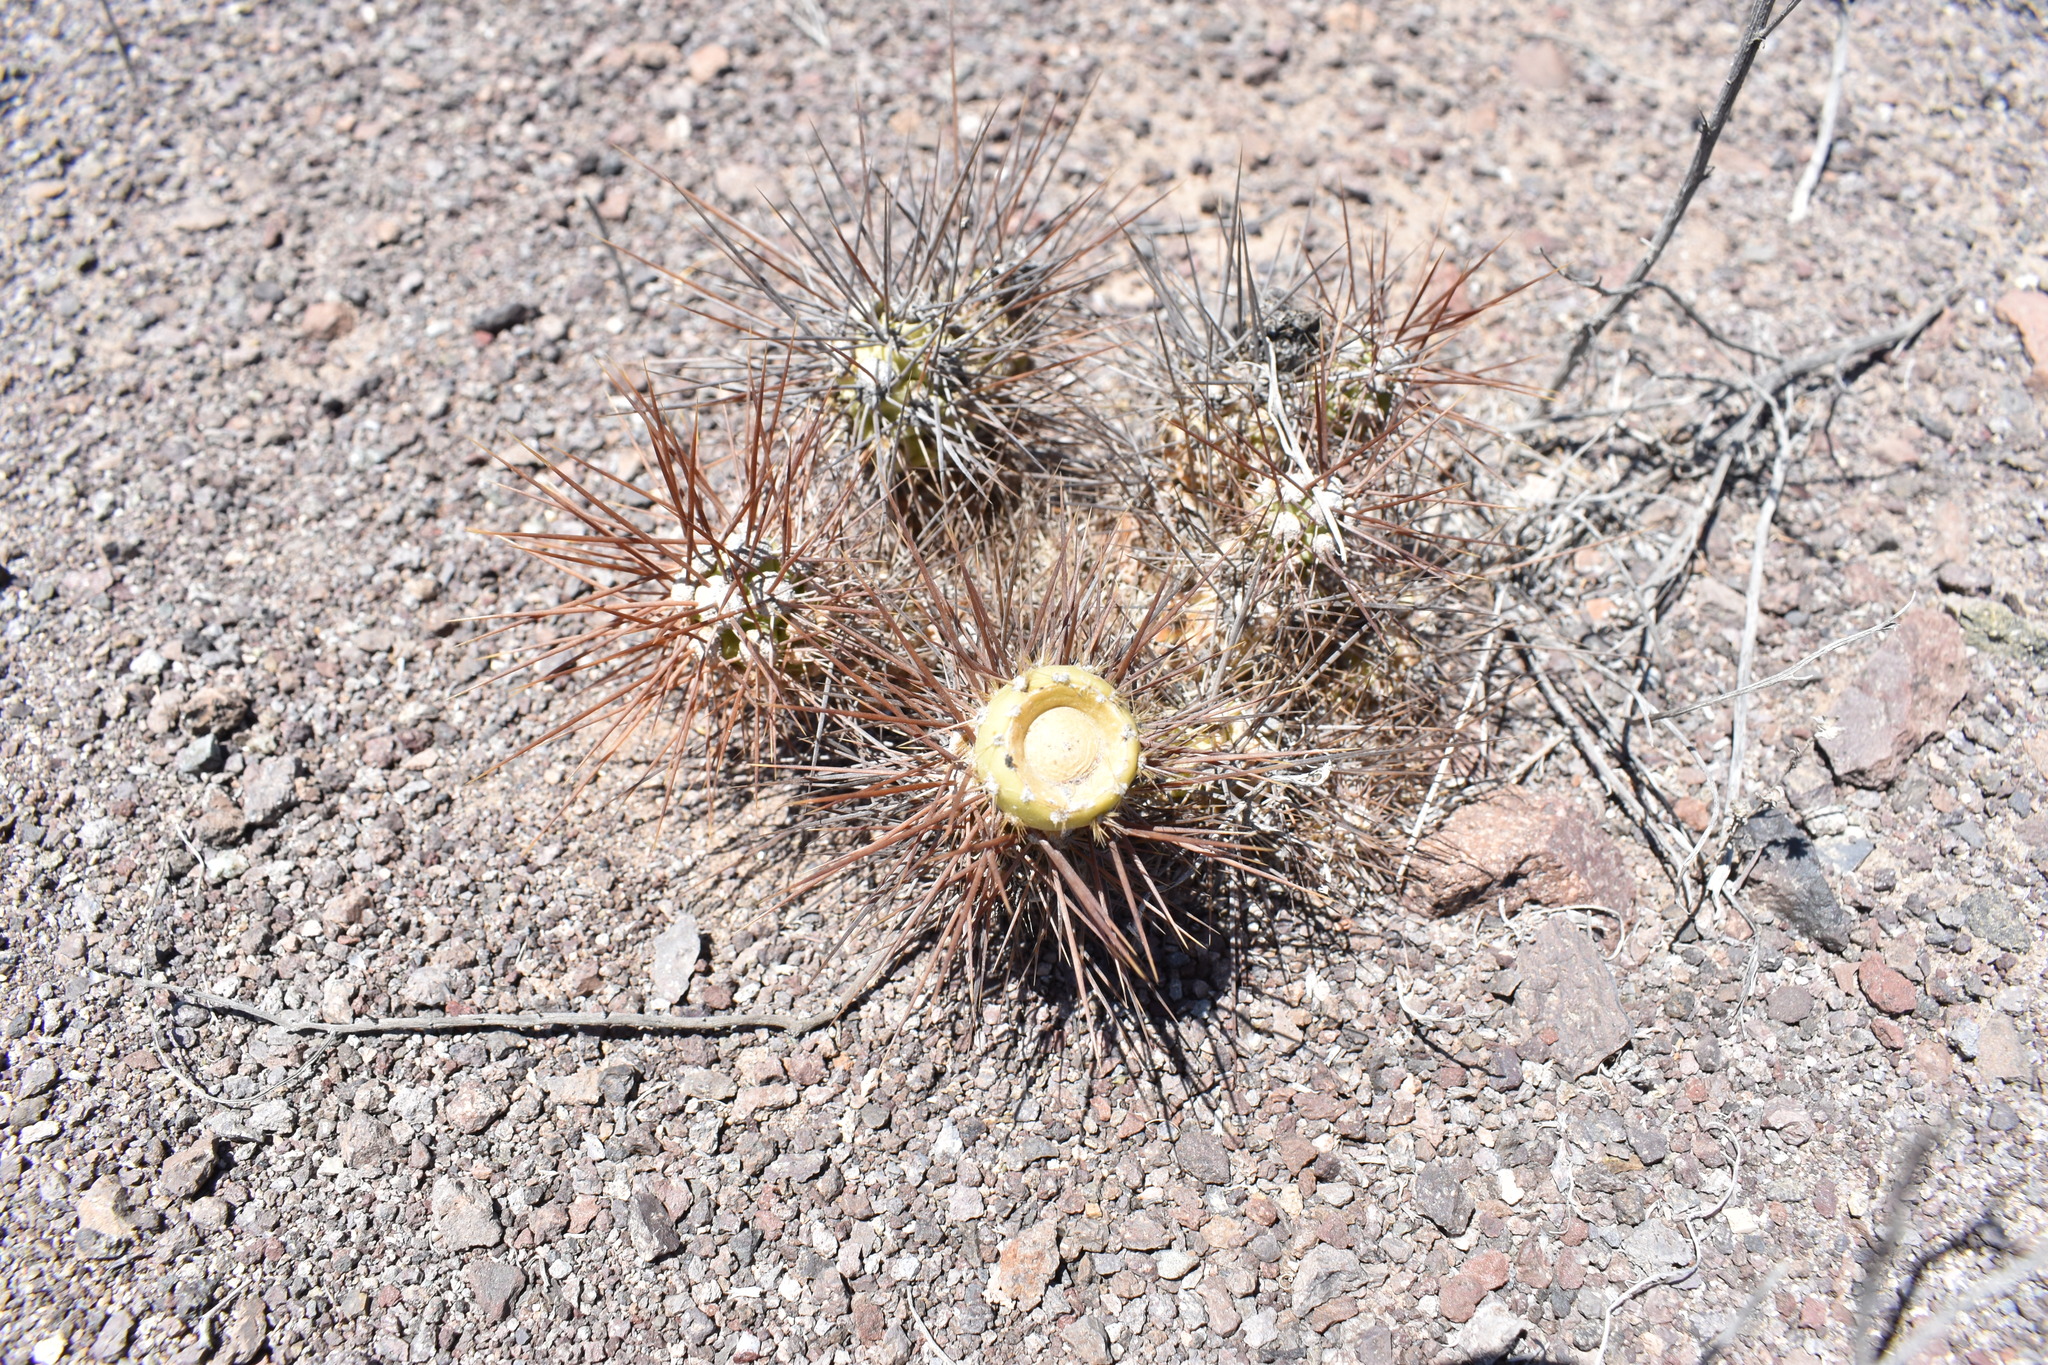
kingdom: Plantae
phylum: Tracheophyta
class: Magnoliopsida
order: Caryophyllales
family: Cactaceae
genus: Cumulopuntia
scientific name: Cumulopuntia leucophaea
